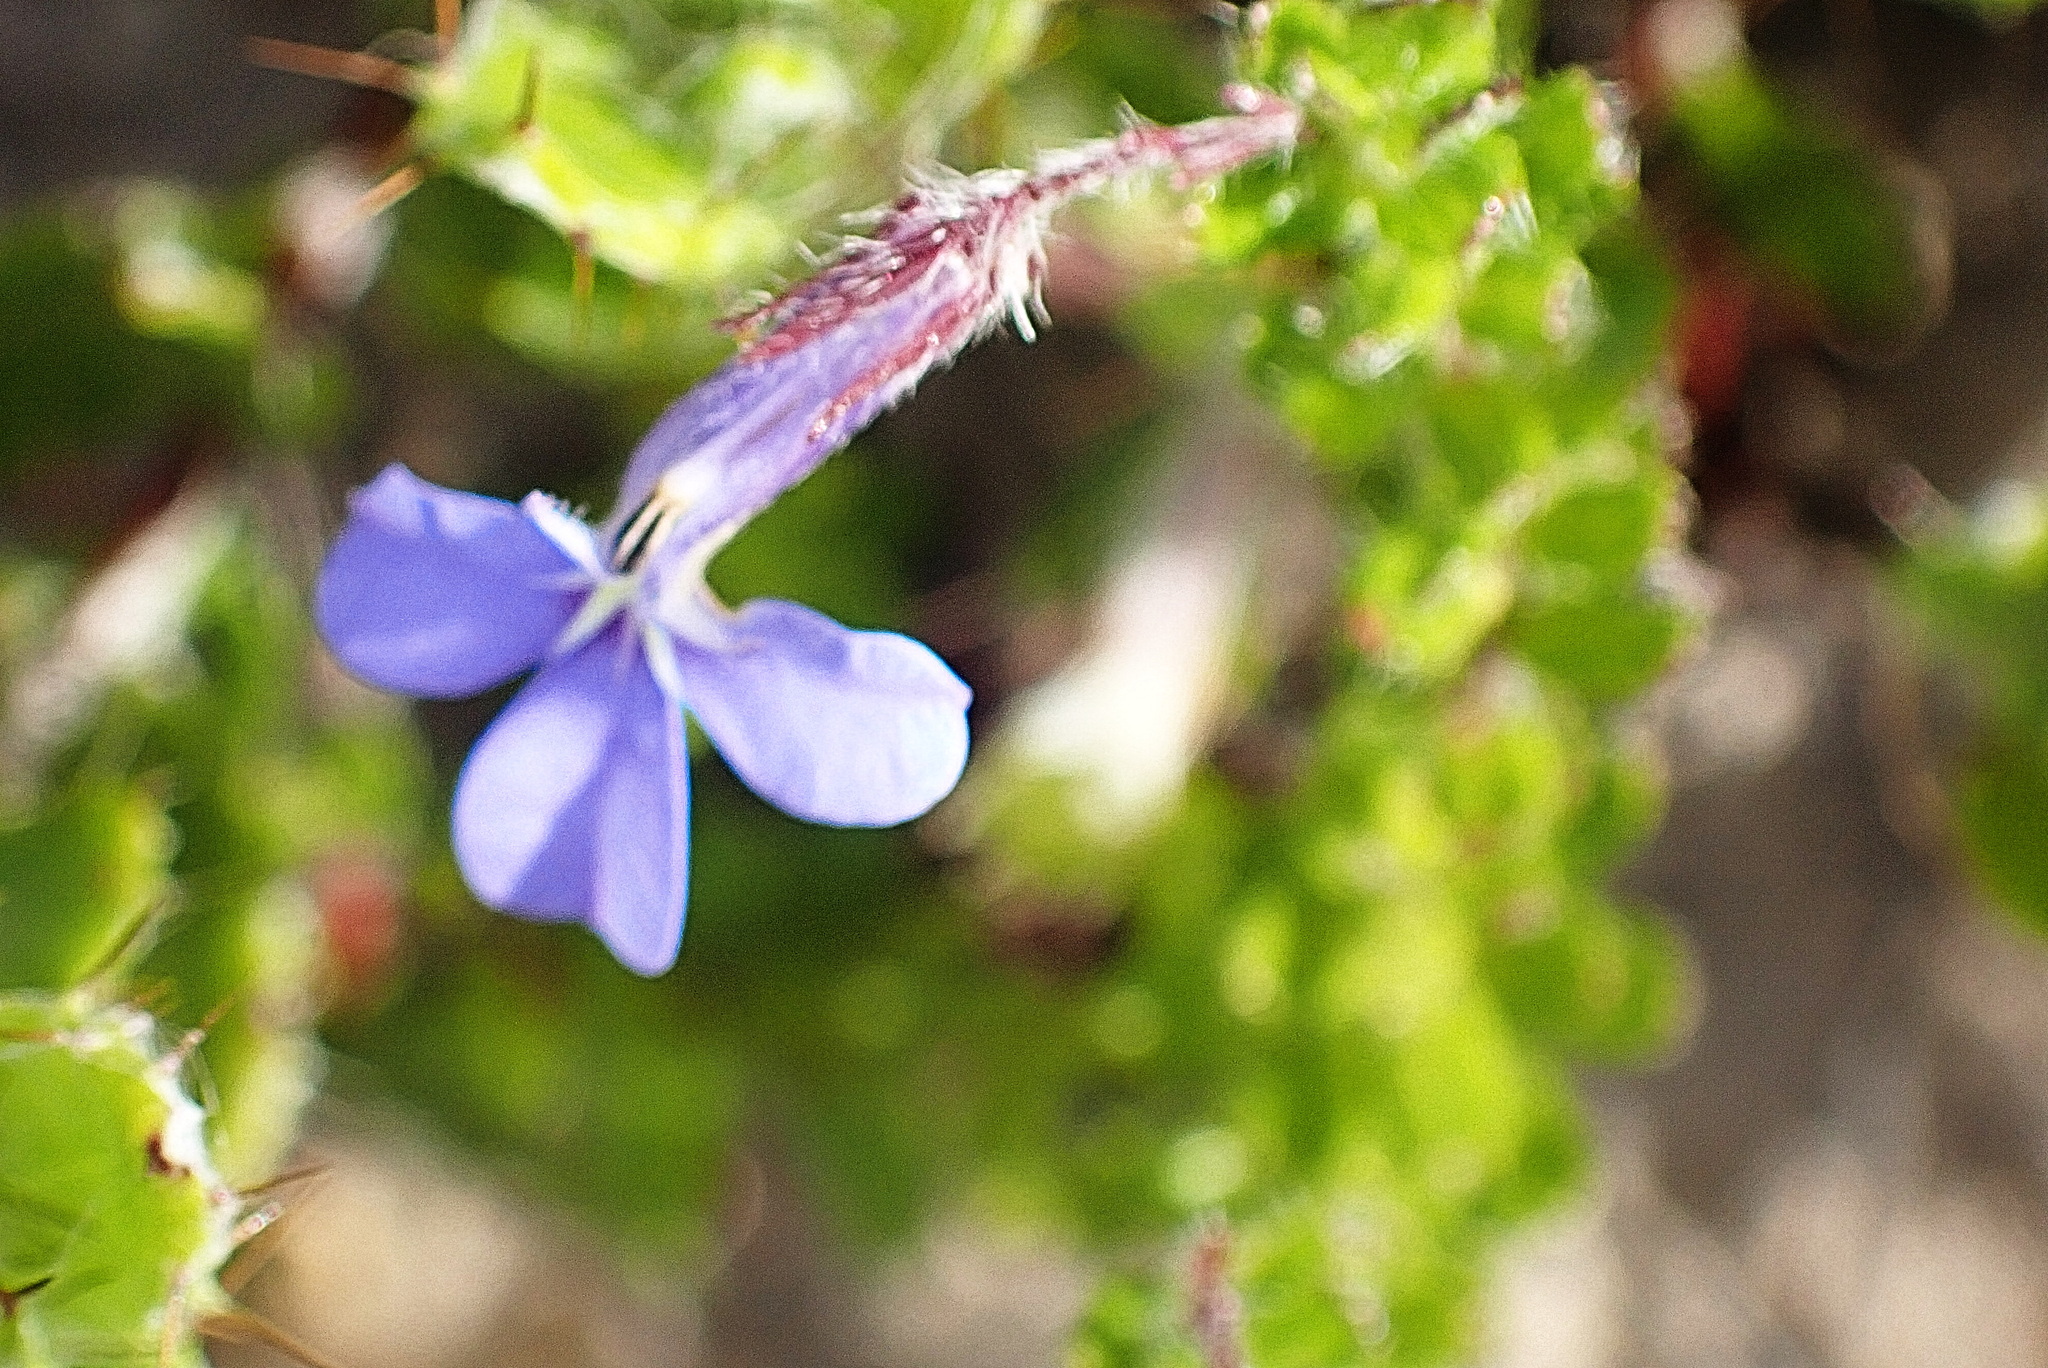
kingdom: Plantae
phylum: Tracheophyta
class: Magnoliopsida
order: Asterales
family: Campanulaceae
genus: Lobelia
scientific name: Lobelia neglecta
